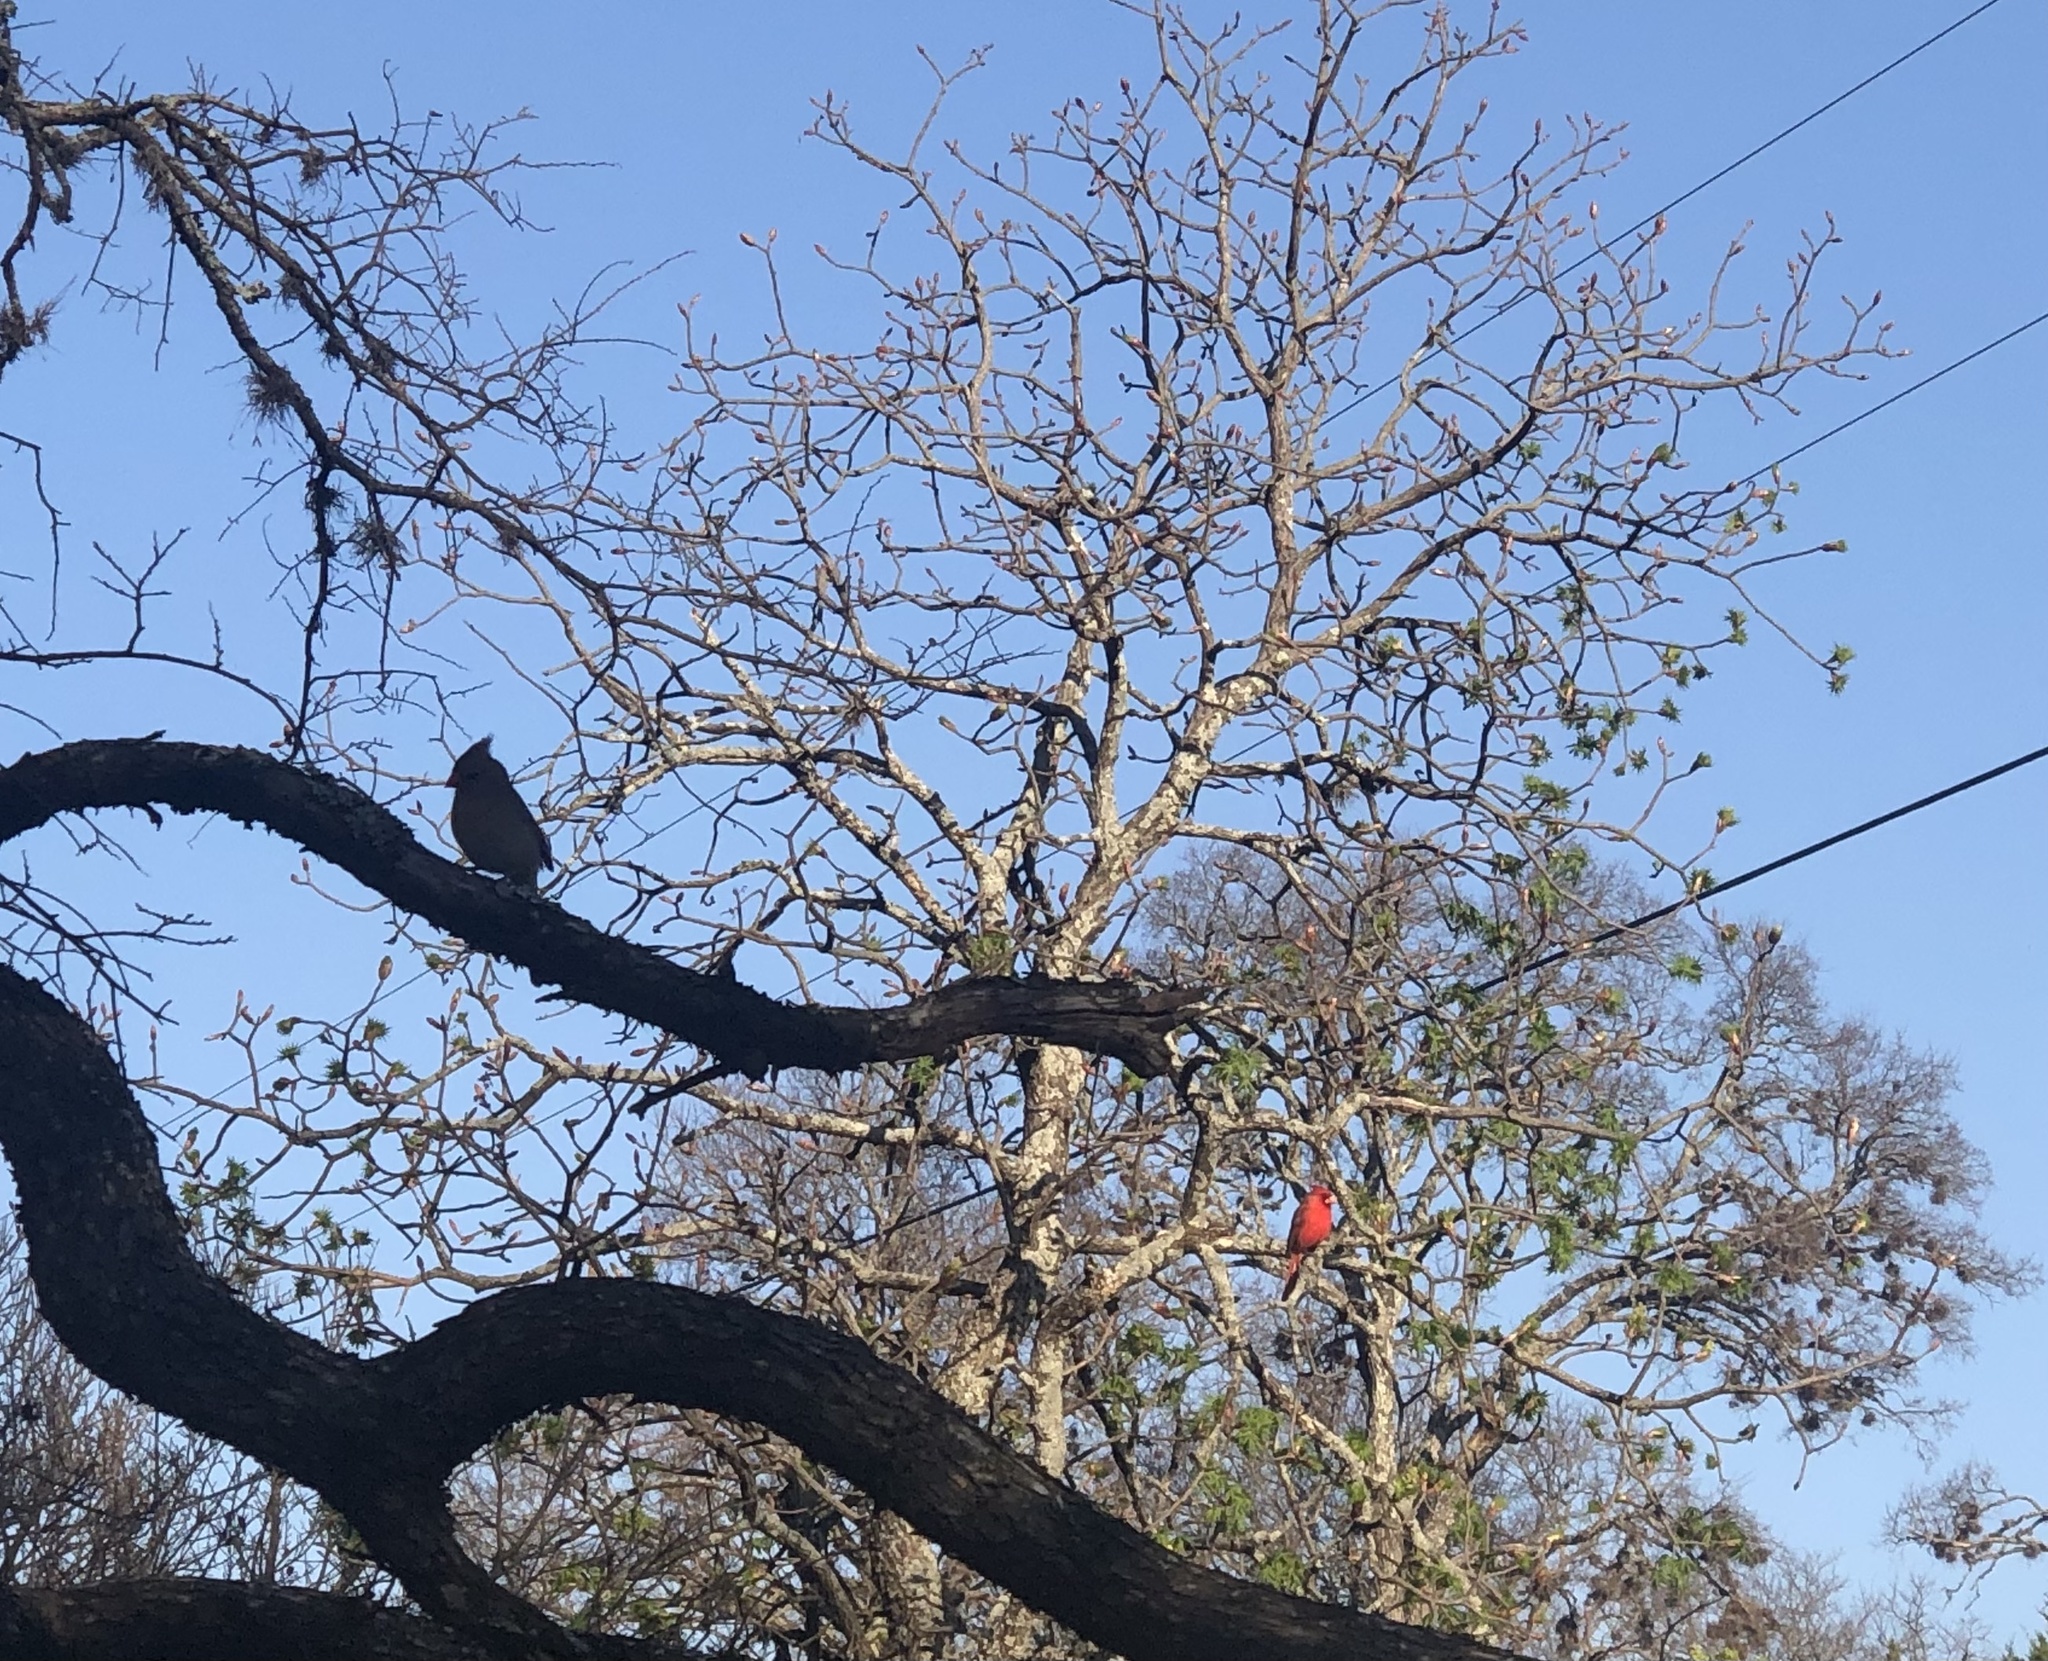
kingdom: Animalia
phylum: Chordata
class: Aves
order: Passeriformes
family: Cardinalidae
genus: Cardinalis
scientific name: Cardinalis cardinalis
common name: Northern cardinal
